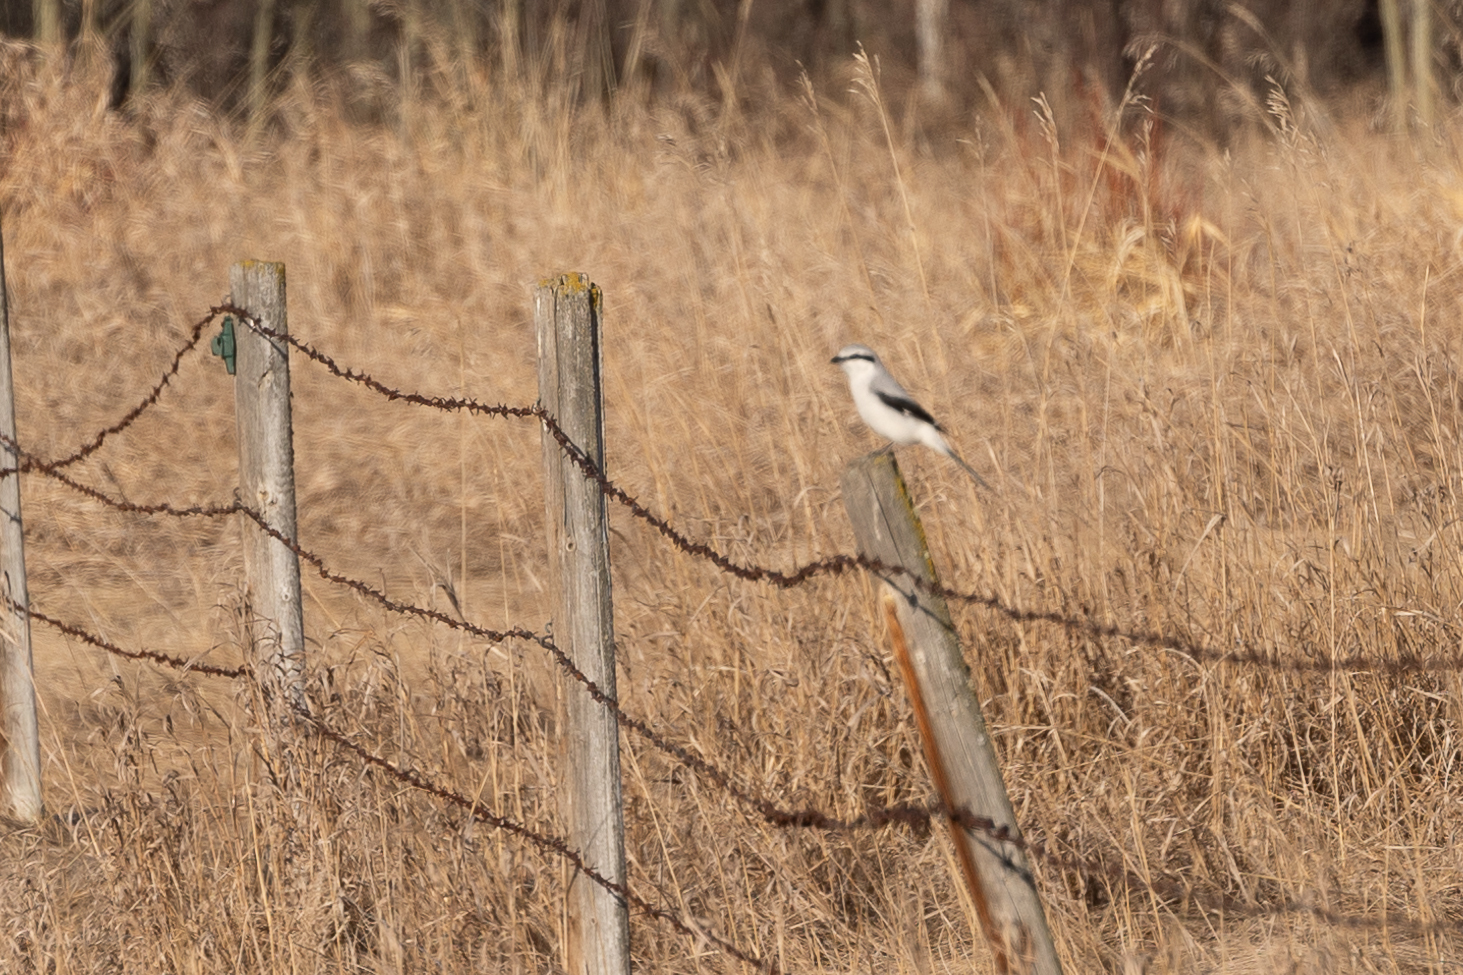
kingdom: Animalia
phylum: Chordata
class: Aves
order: Passeriformes
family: Laniidae
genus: Lanius
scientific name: Lanius borealis
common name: Northern shrike
